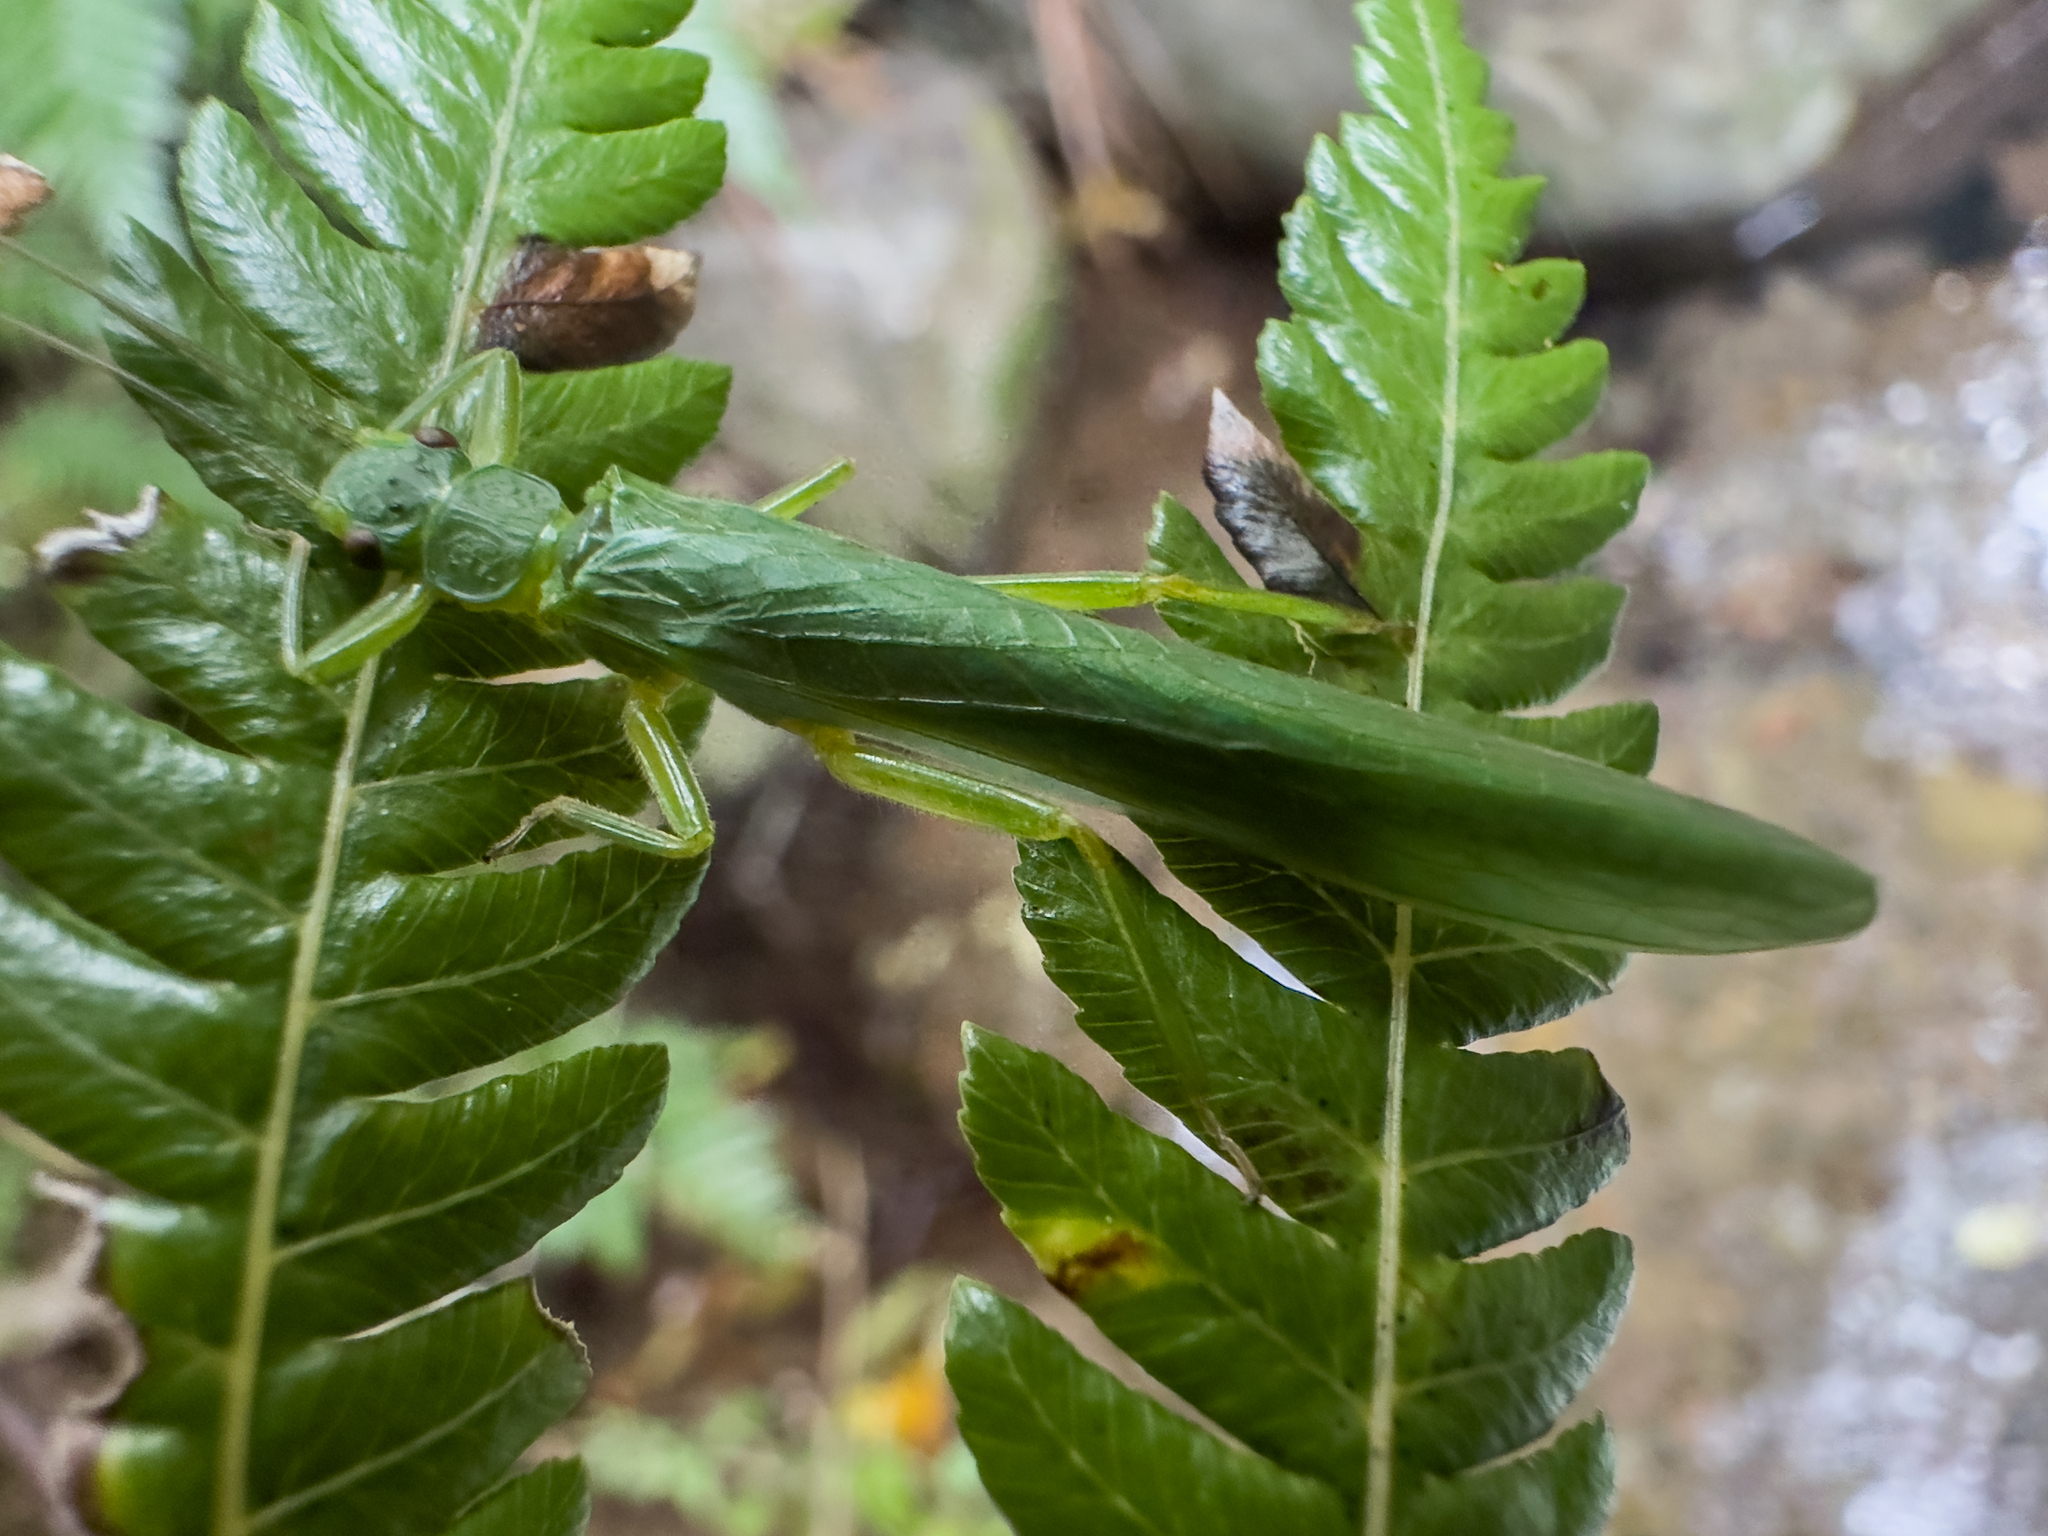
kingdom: Animalia
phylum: Arthropoda
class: Insecta
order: Plecoptera
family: Eustheniidae
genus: Stenoperla
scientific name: Stenoperla prasina
